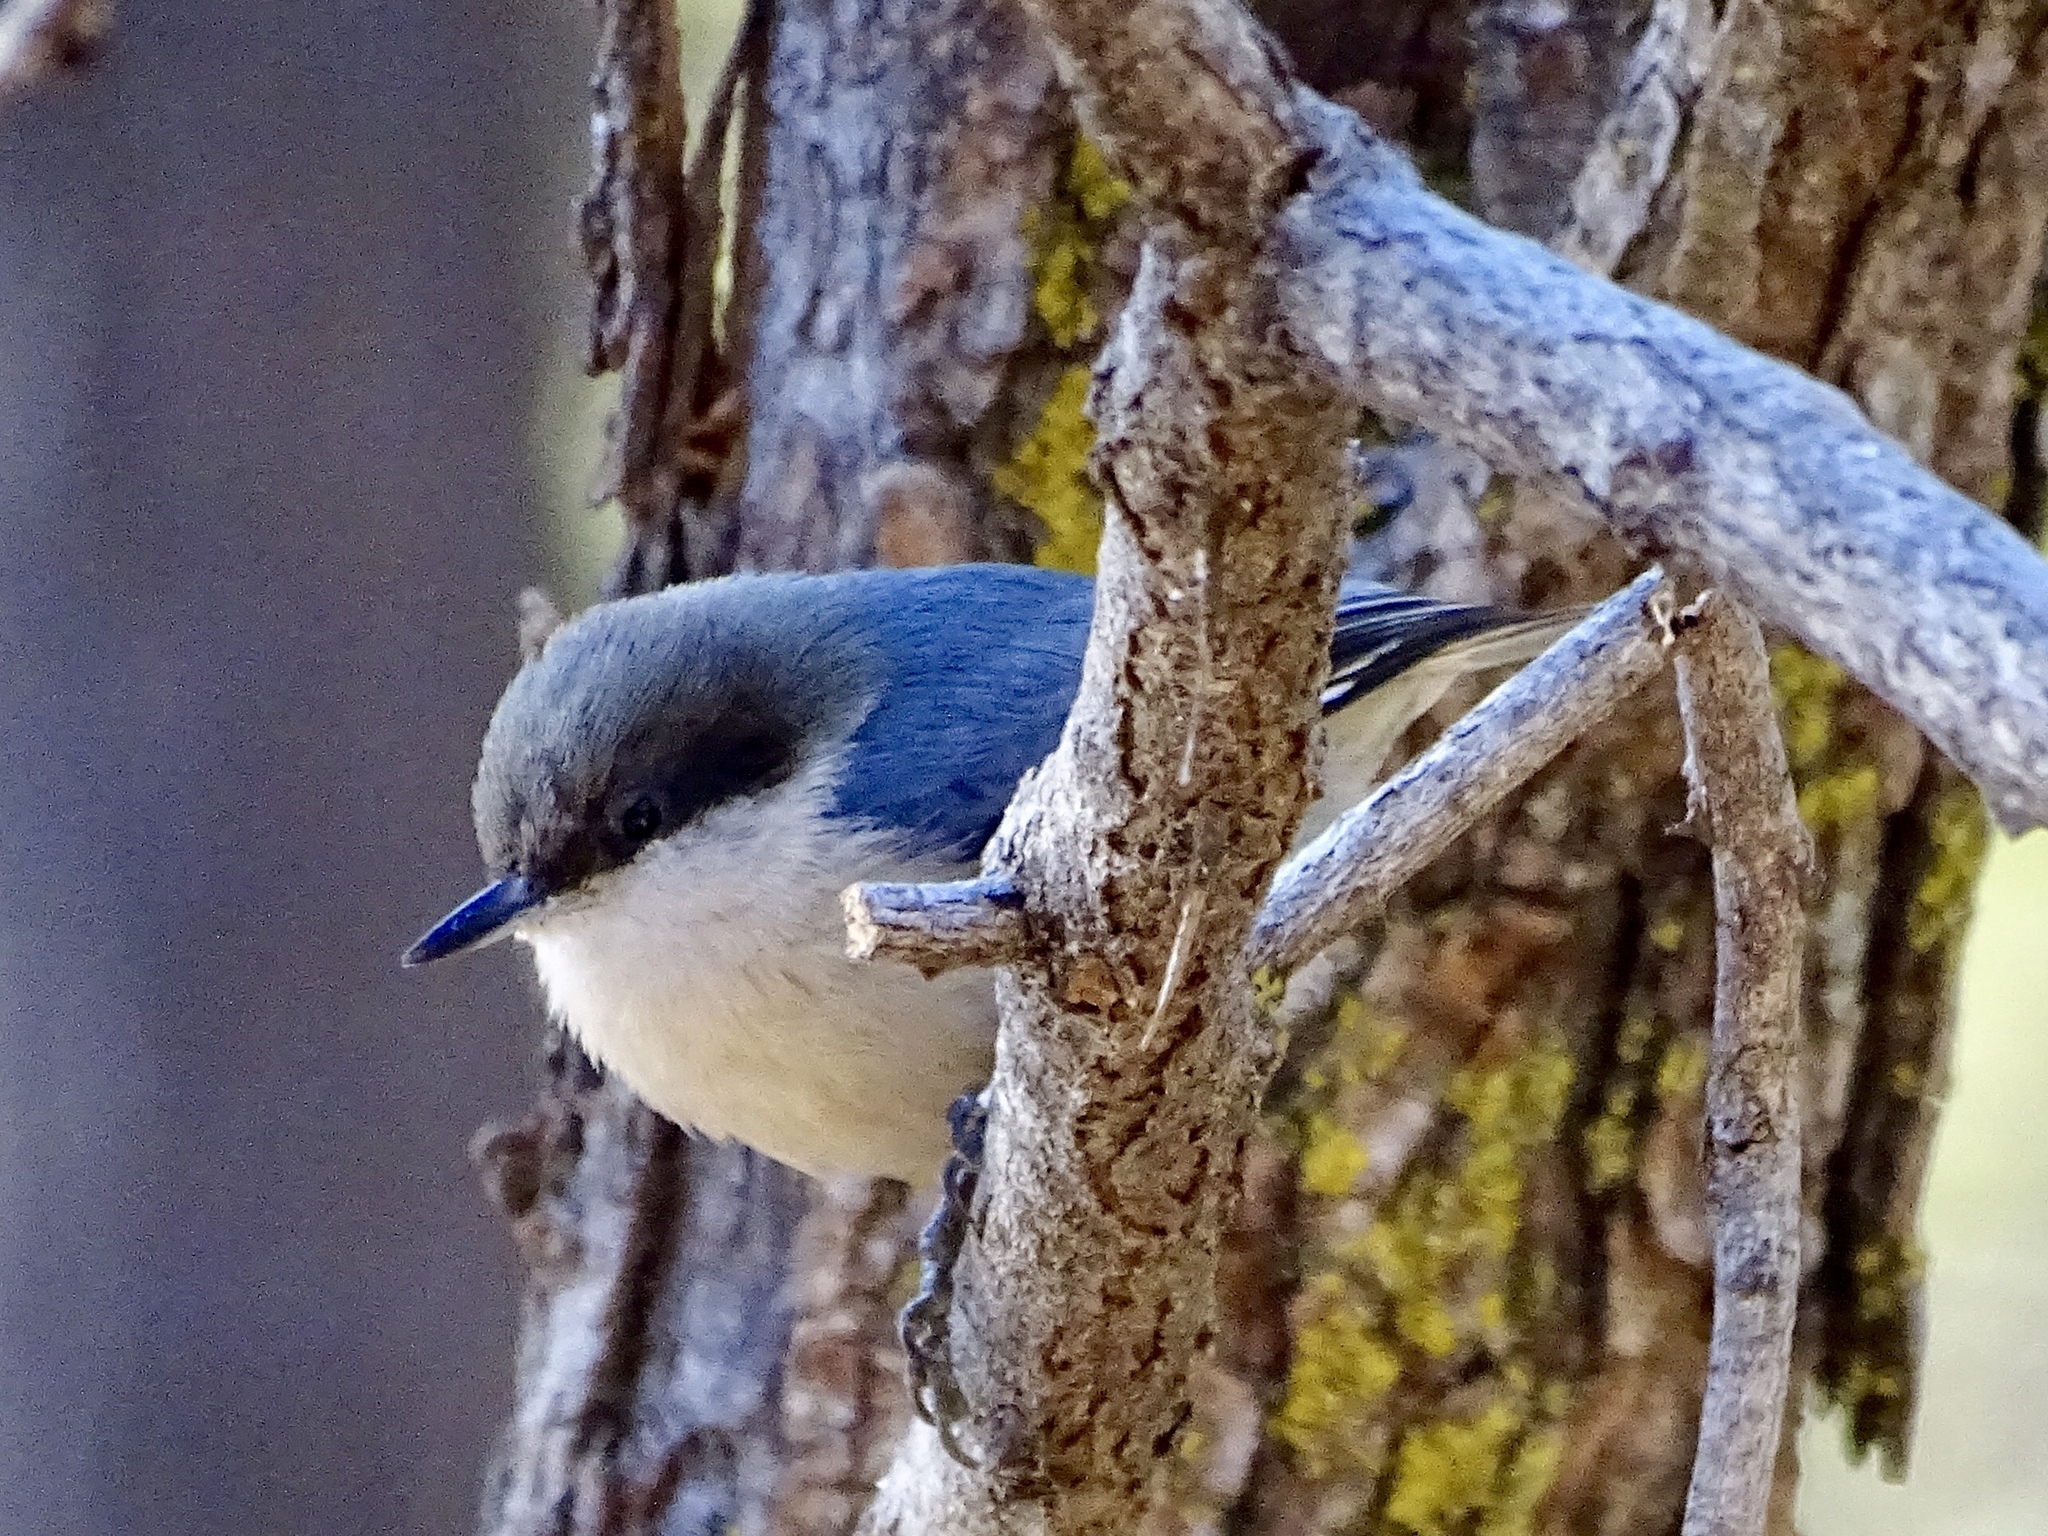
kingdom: Animalia
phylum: Chordata
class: Aves
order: Passeriformes
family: Sittidae
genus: Sitta
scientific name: Sitta pygmaea
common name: Pygmy nuthatch
